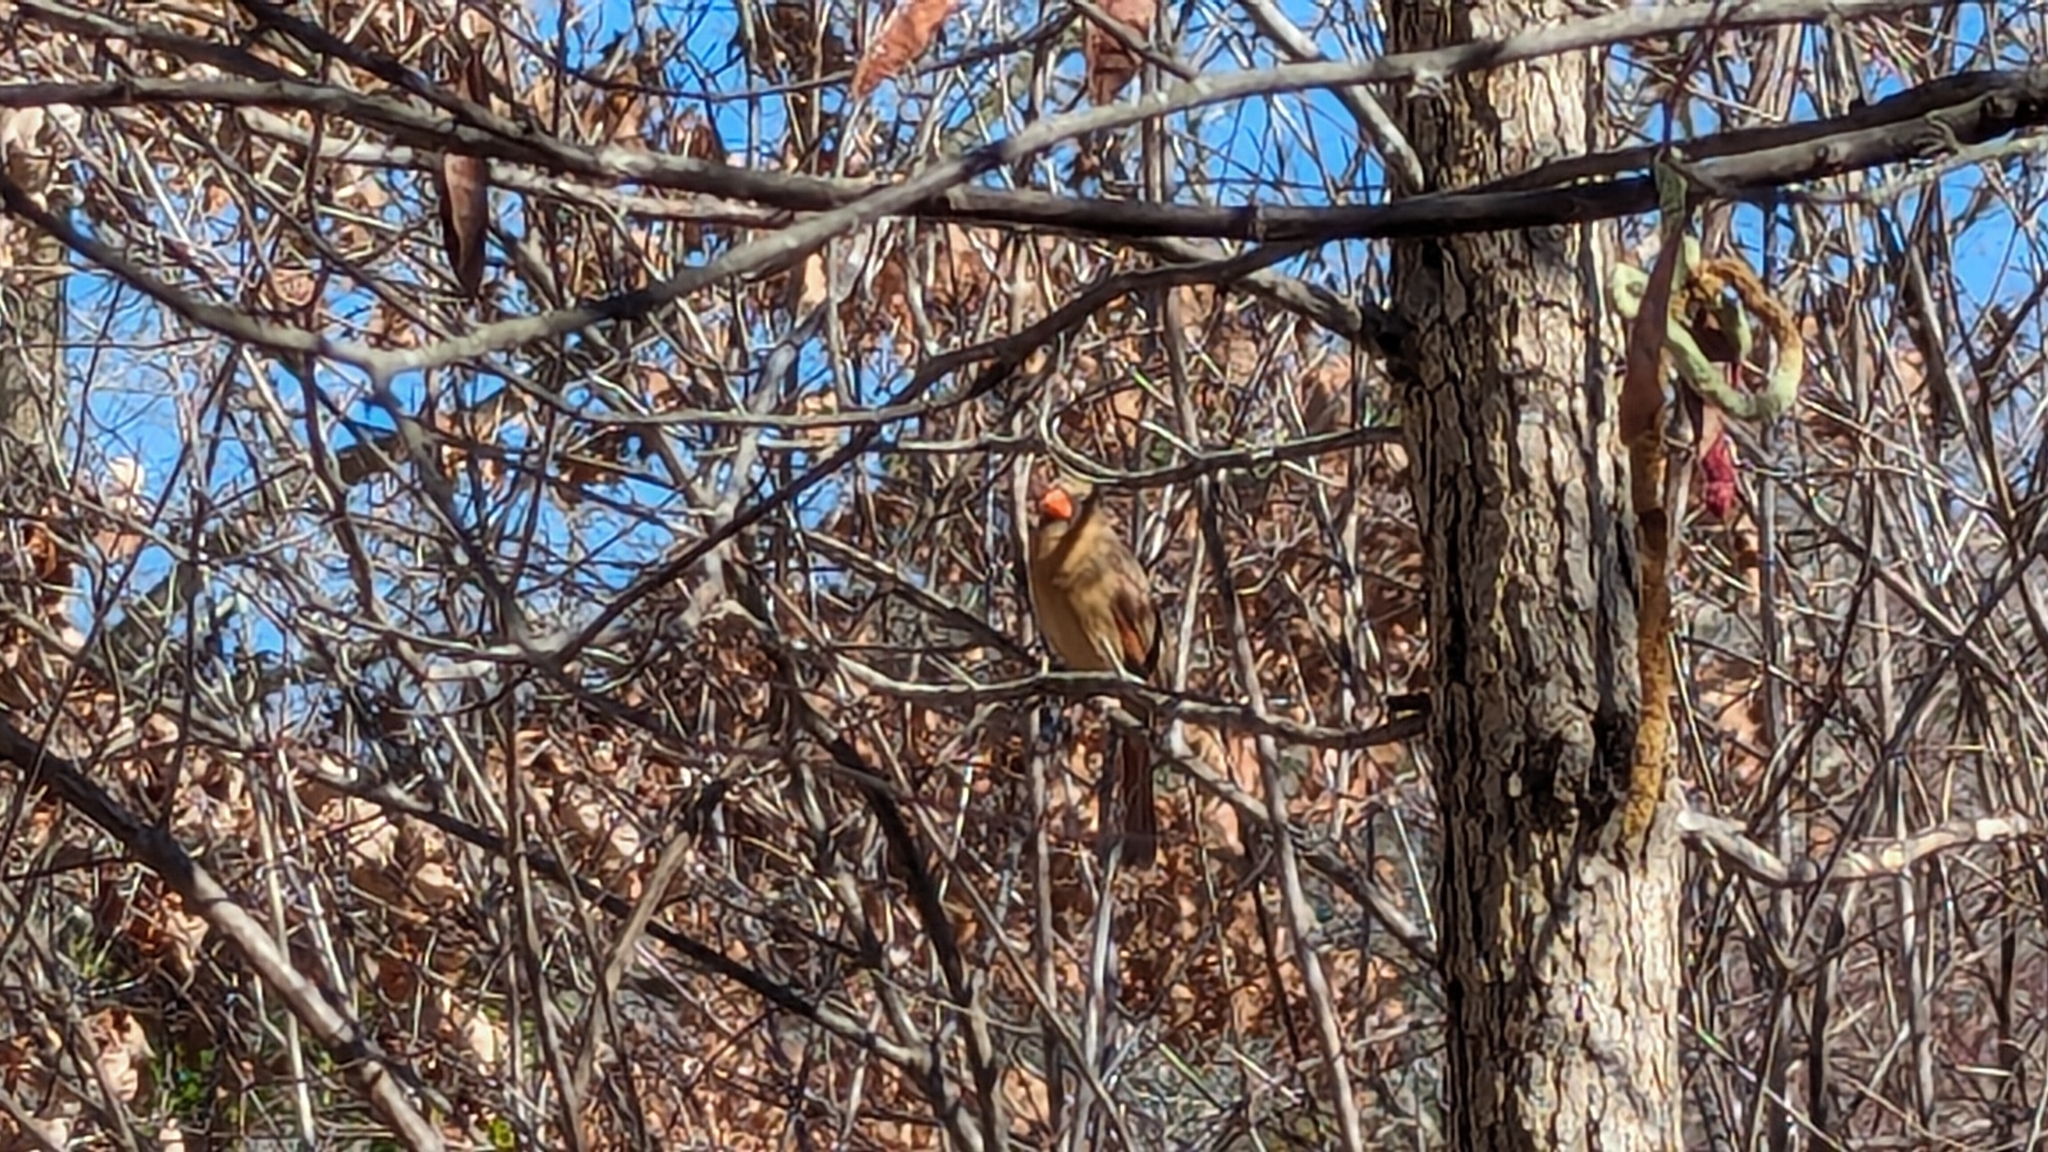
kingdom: Animalia
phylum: Chordata
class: Aves
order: Passeriformes
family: Cardinalidae
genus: Cardinalis
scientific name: Cardinalis cardinalis
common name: Northern cardinal
